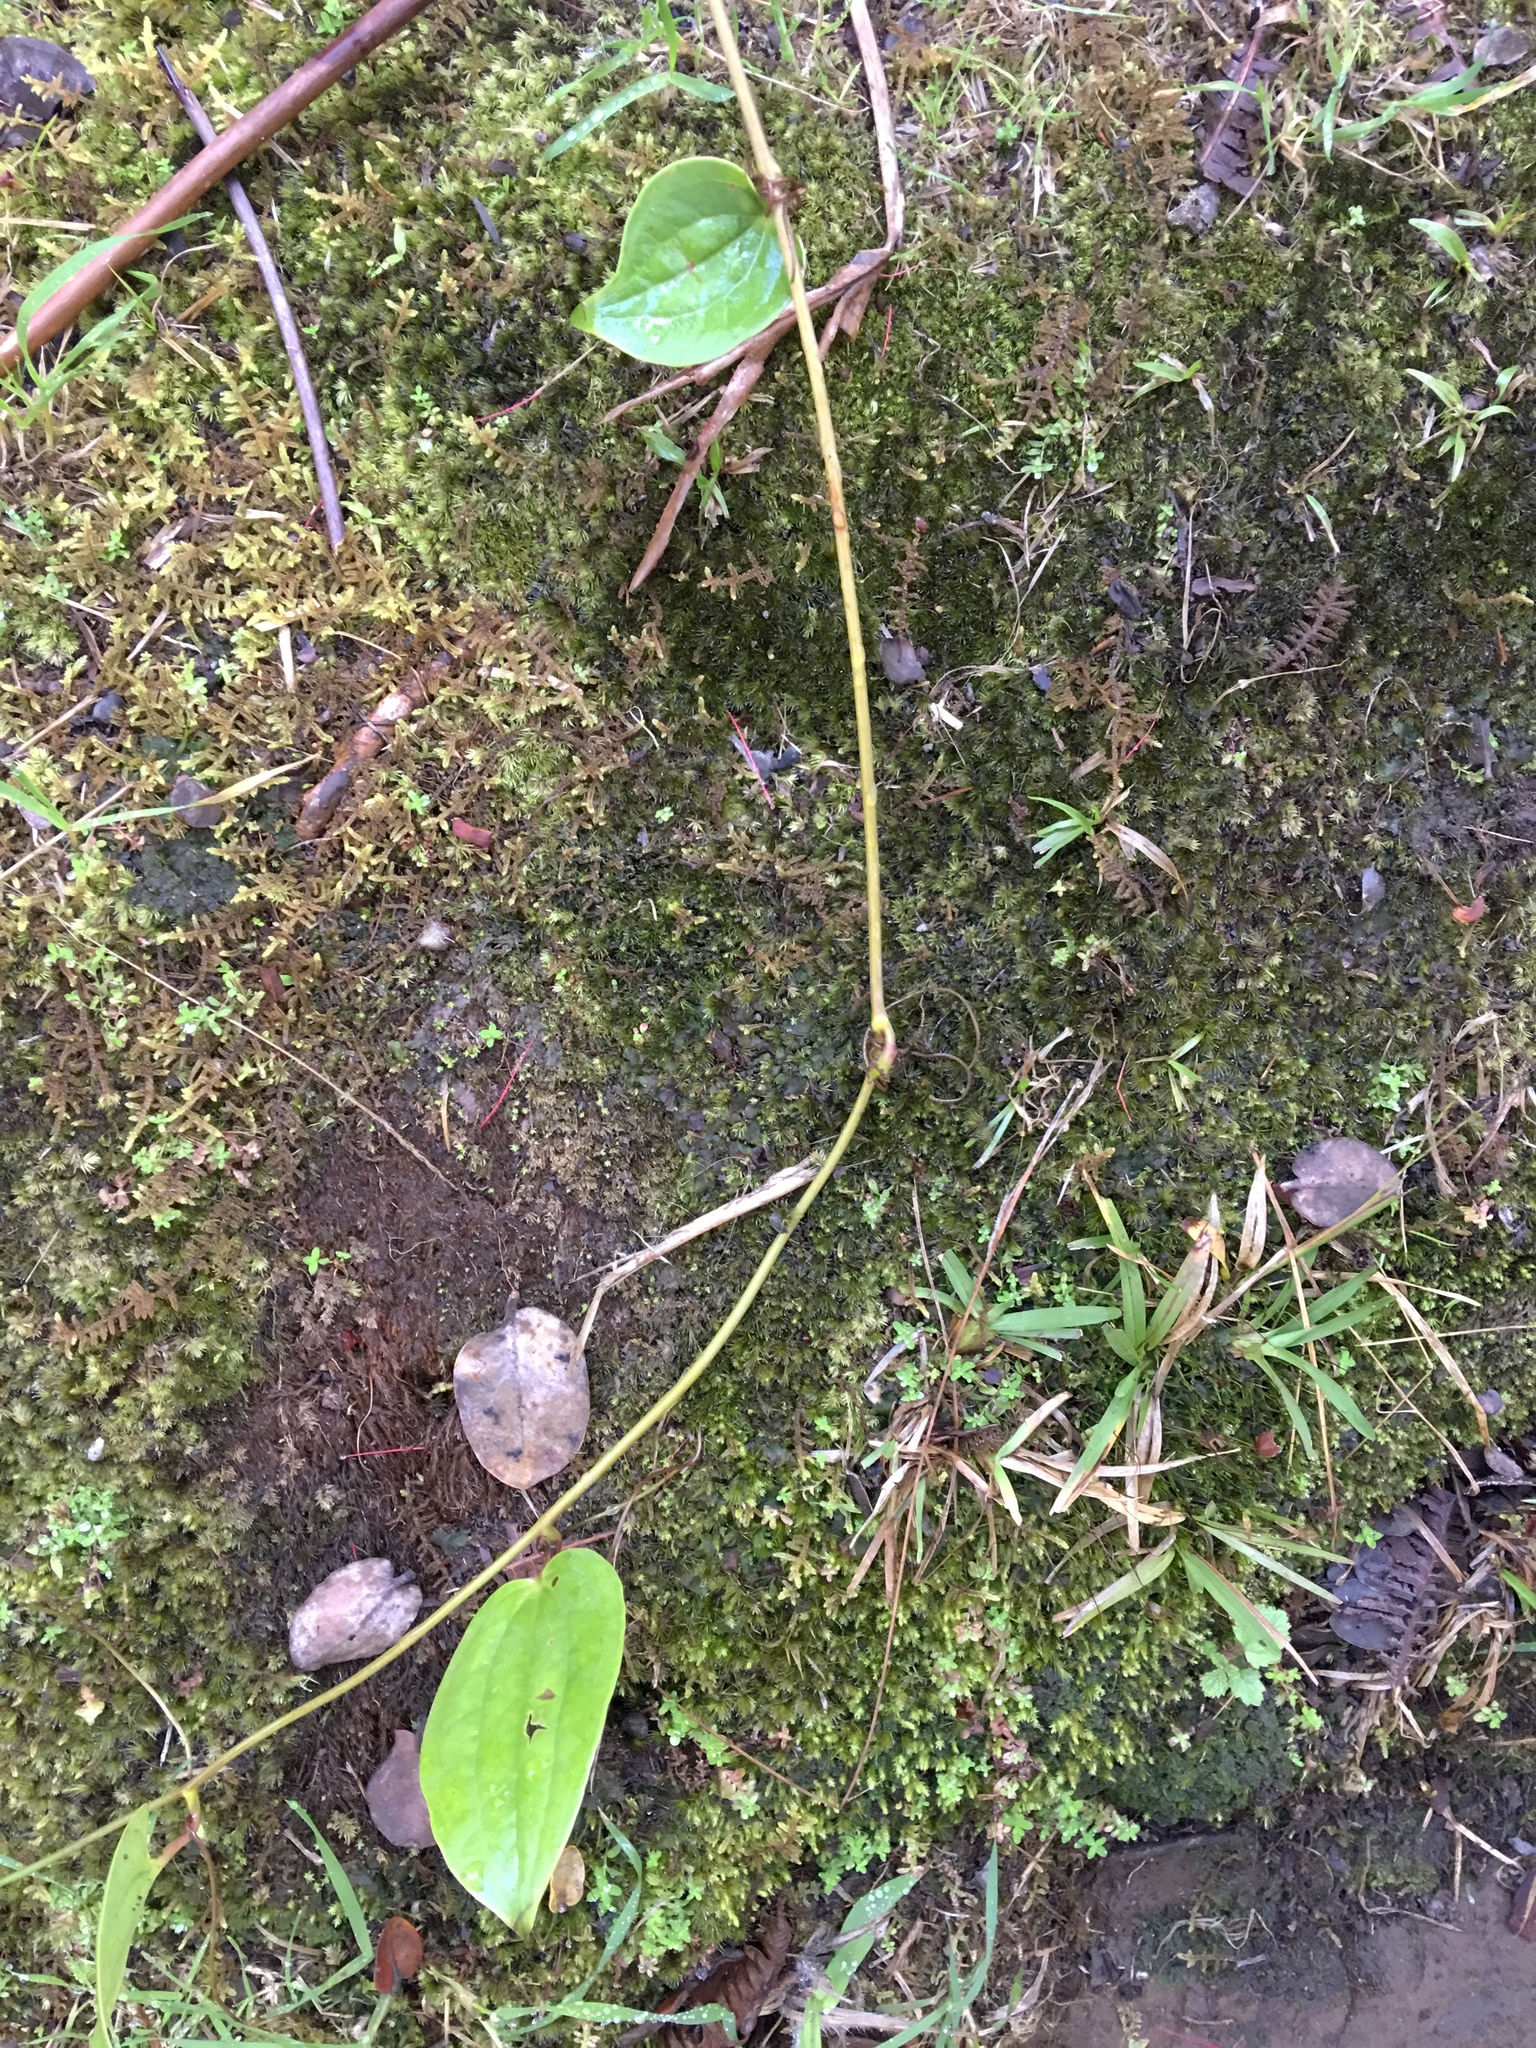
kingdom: Plantae
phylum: Tracheophyta
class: Liliopsida
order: Liliales
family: Smilacaceae
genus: Smilax
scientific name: Smilax melastomifolia
